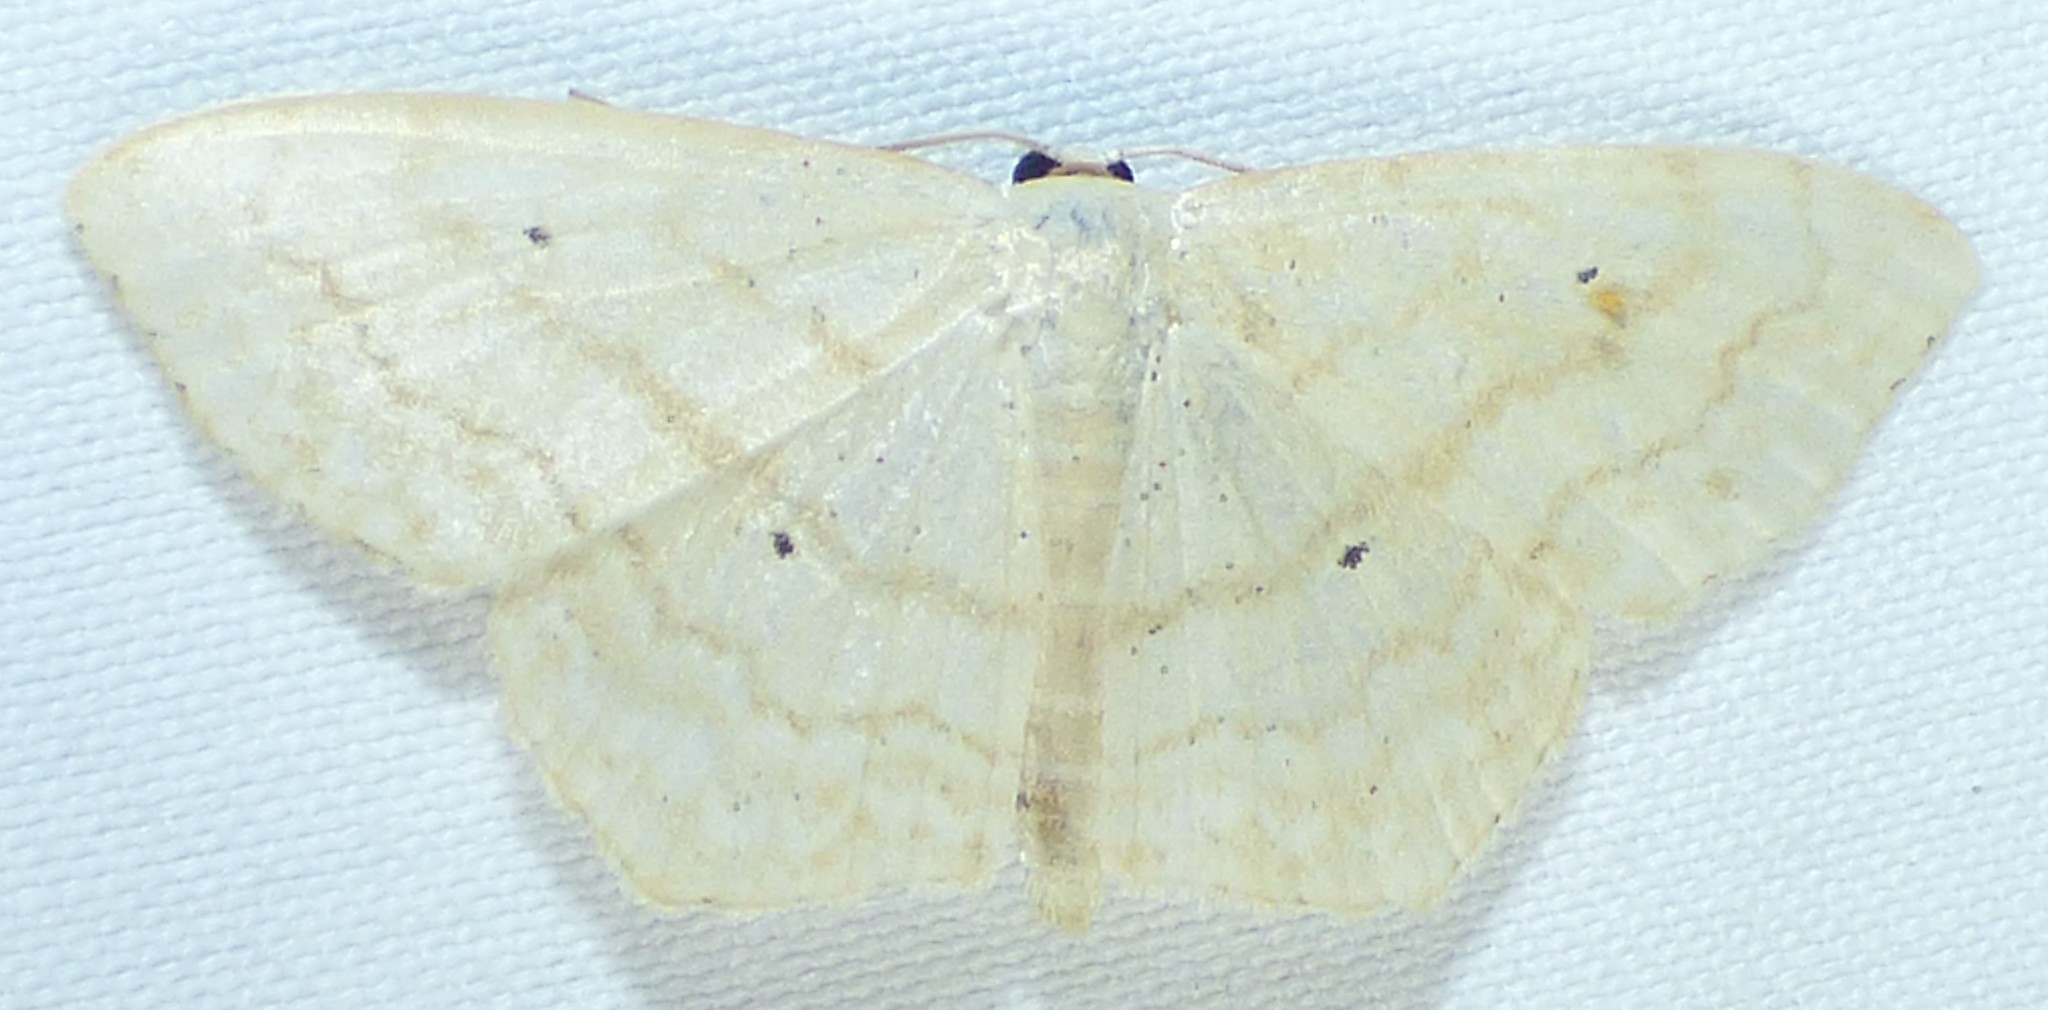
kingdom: Animalia
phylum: Arthropoda
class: Insecta
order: Lepidoptera
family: Geometridae
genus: Scopula
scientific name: Scopula limboundata
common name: Large lace border
